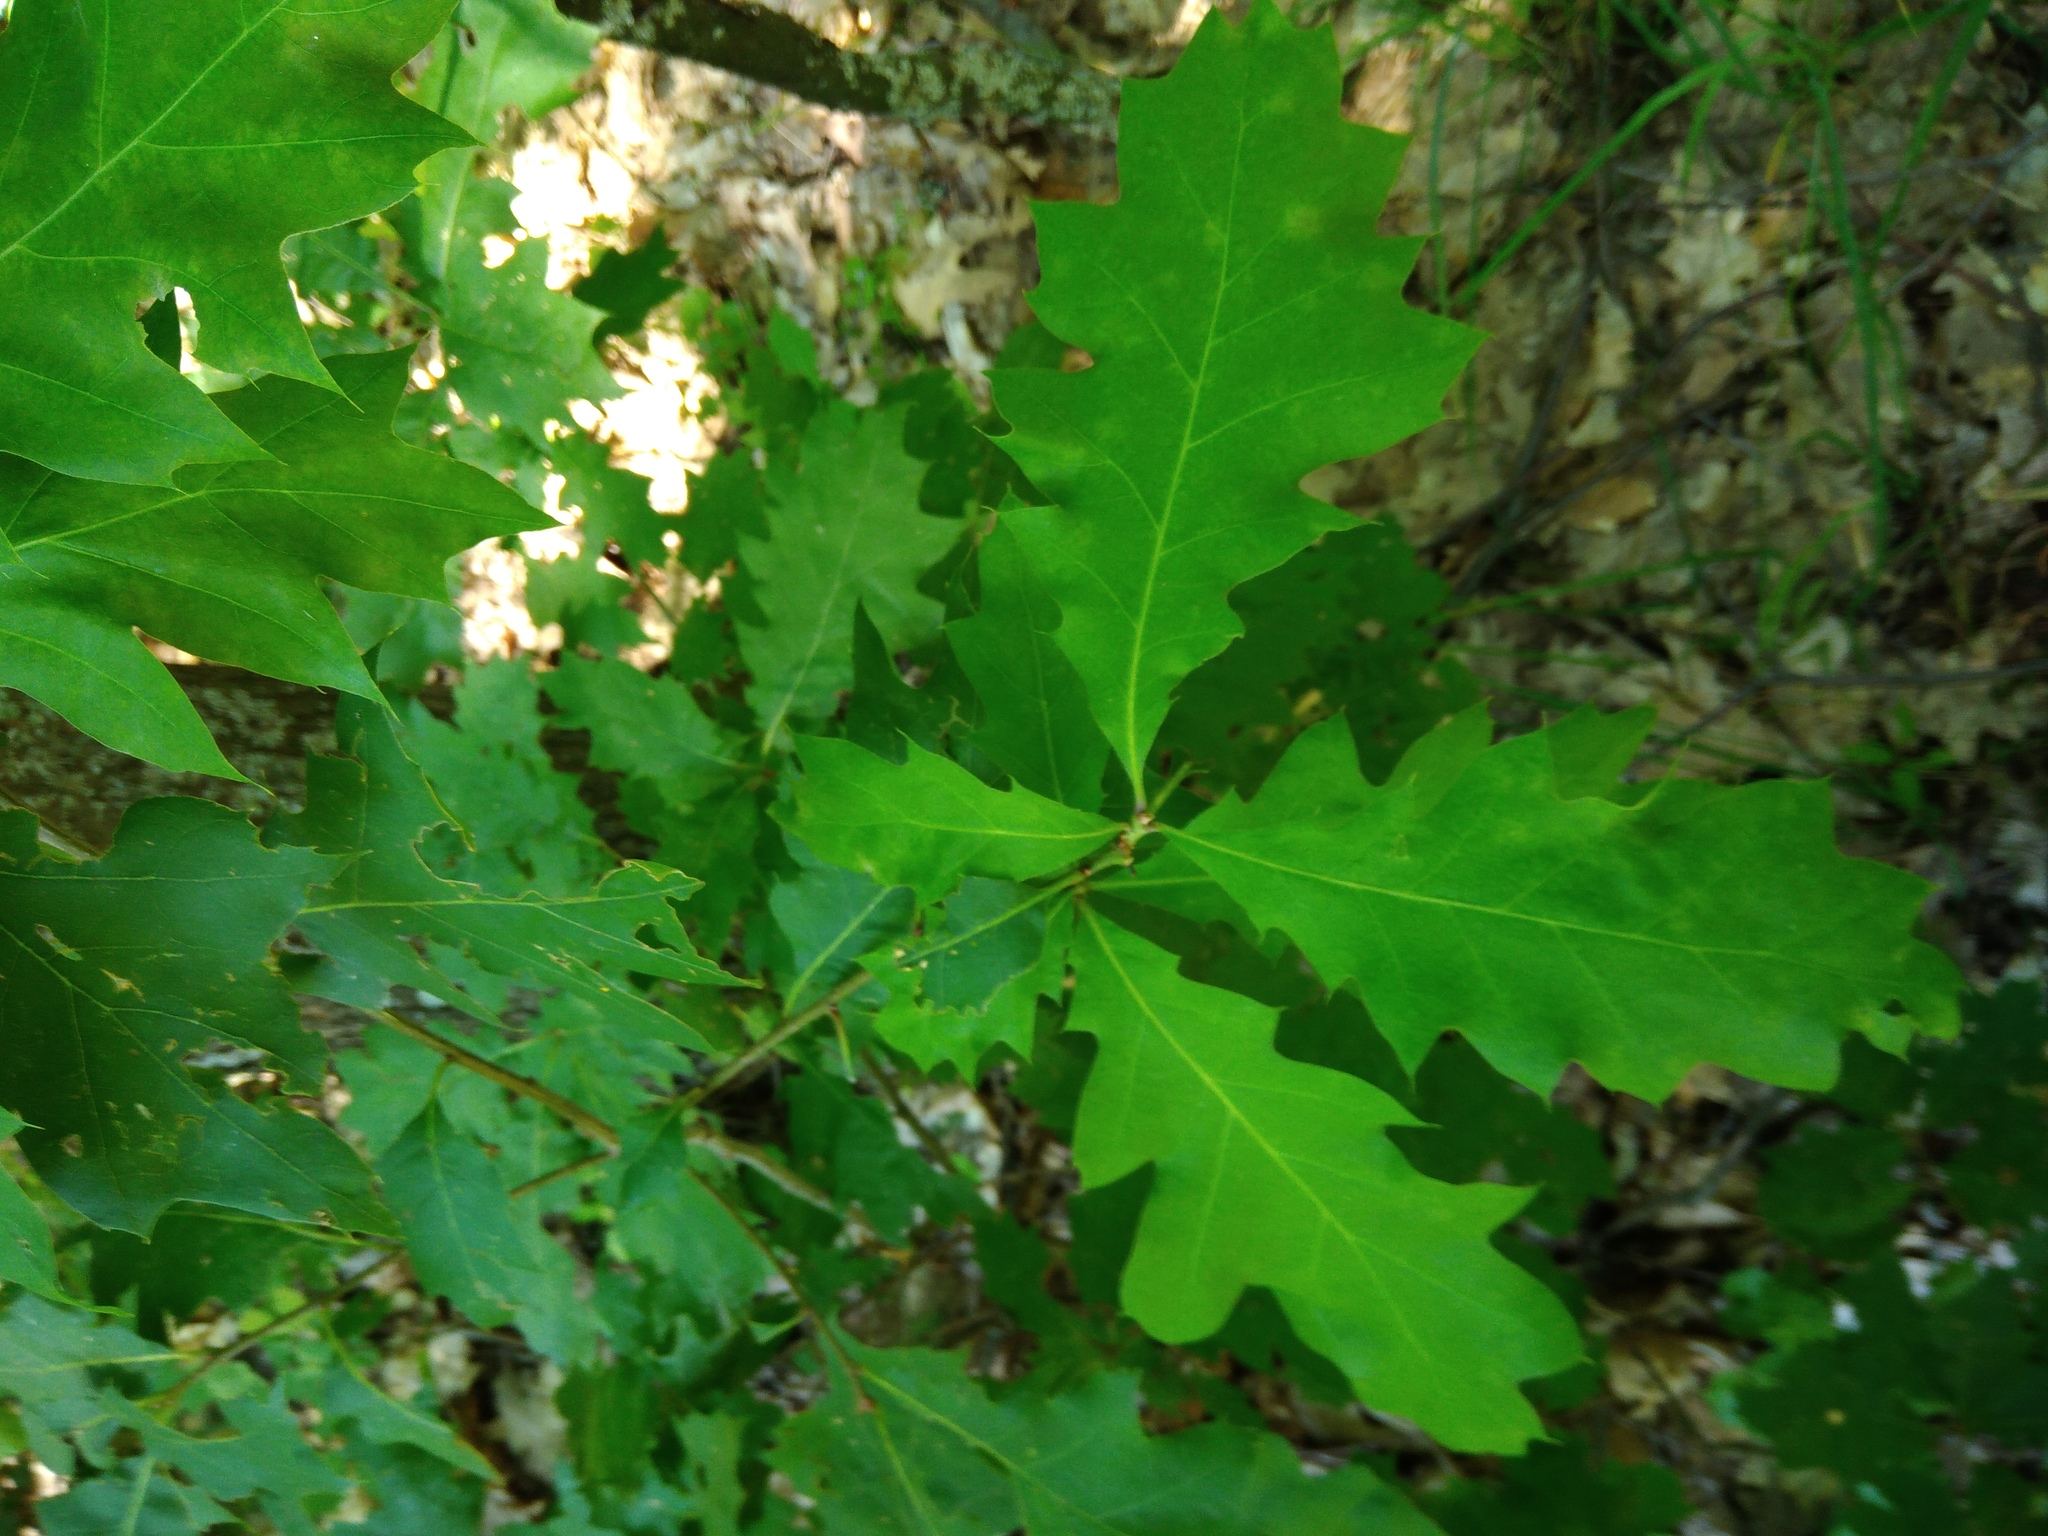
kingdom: Plantae
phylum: Tracheophyta
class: Magnoliopsida
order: Fagales
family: Fagaceae
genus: Quercus
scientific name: Quercus rubra
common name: Red oak
